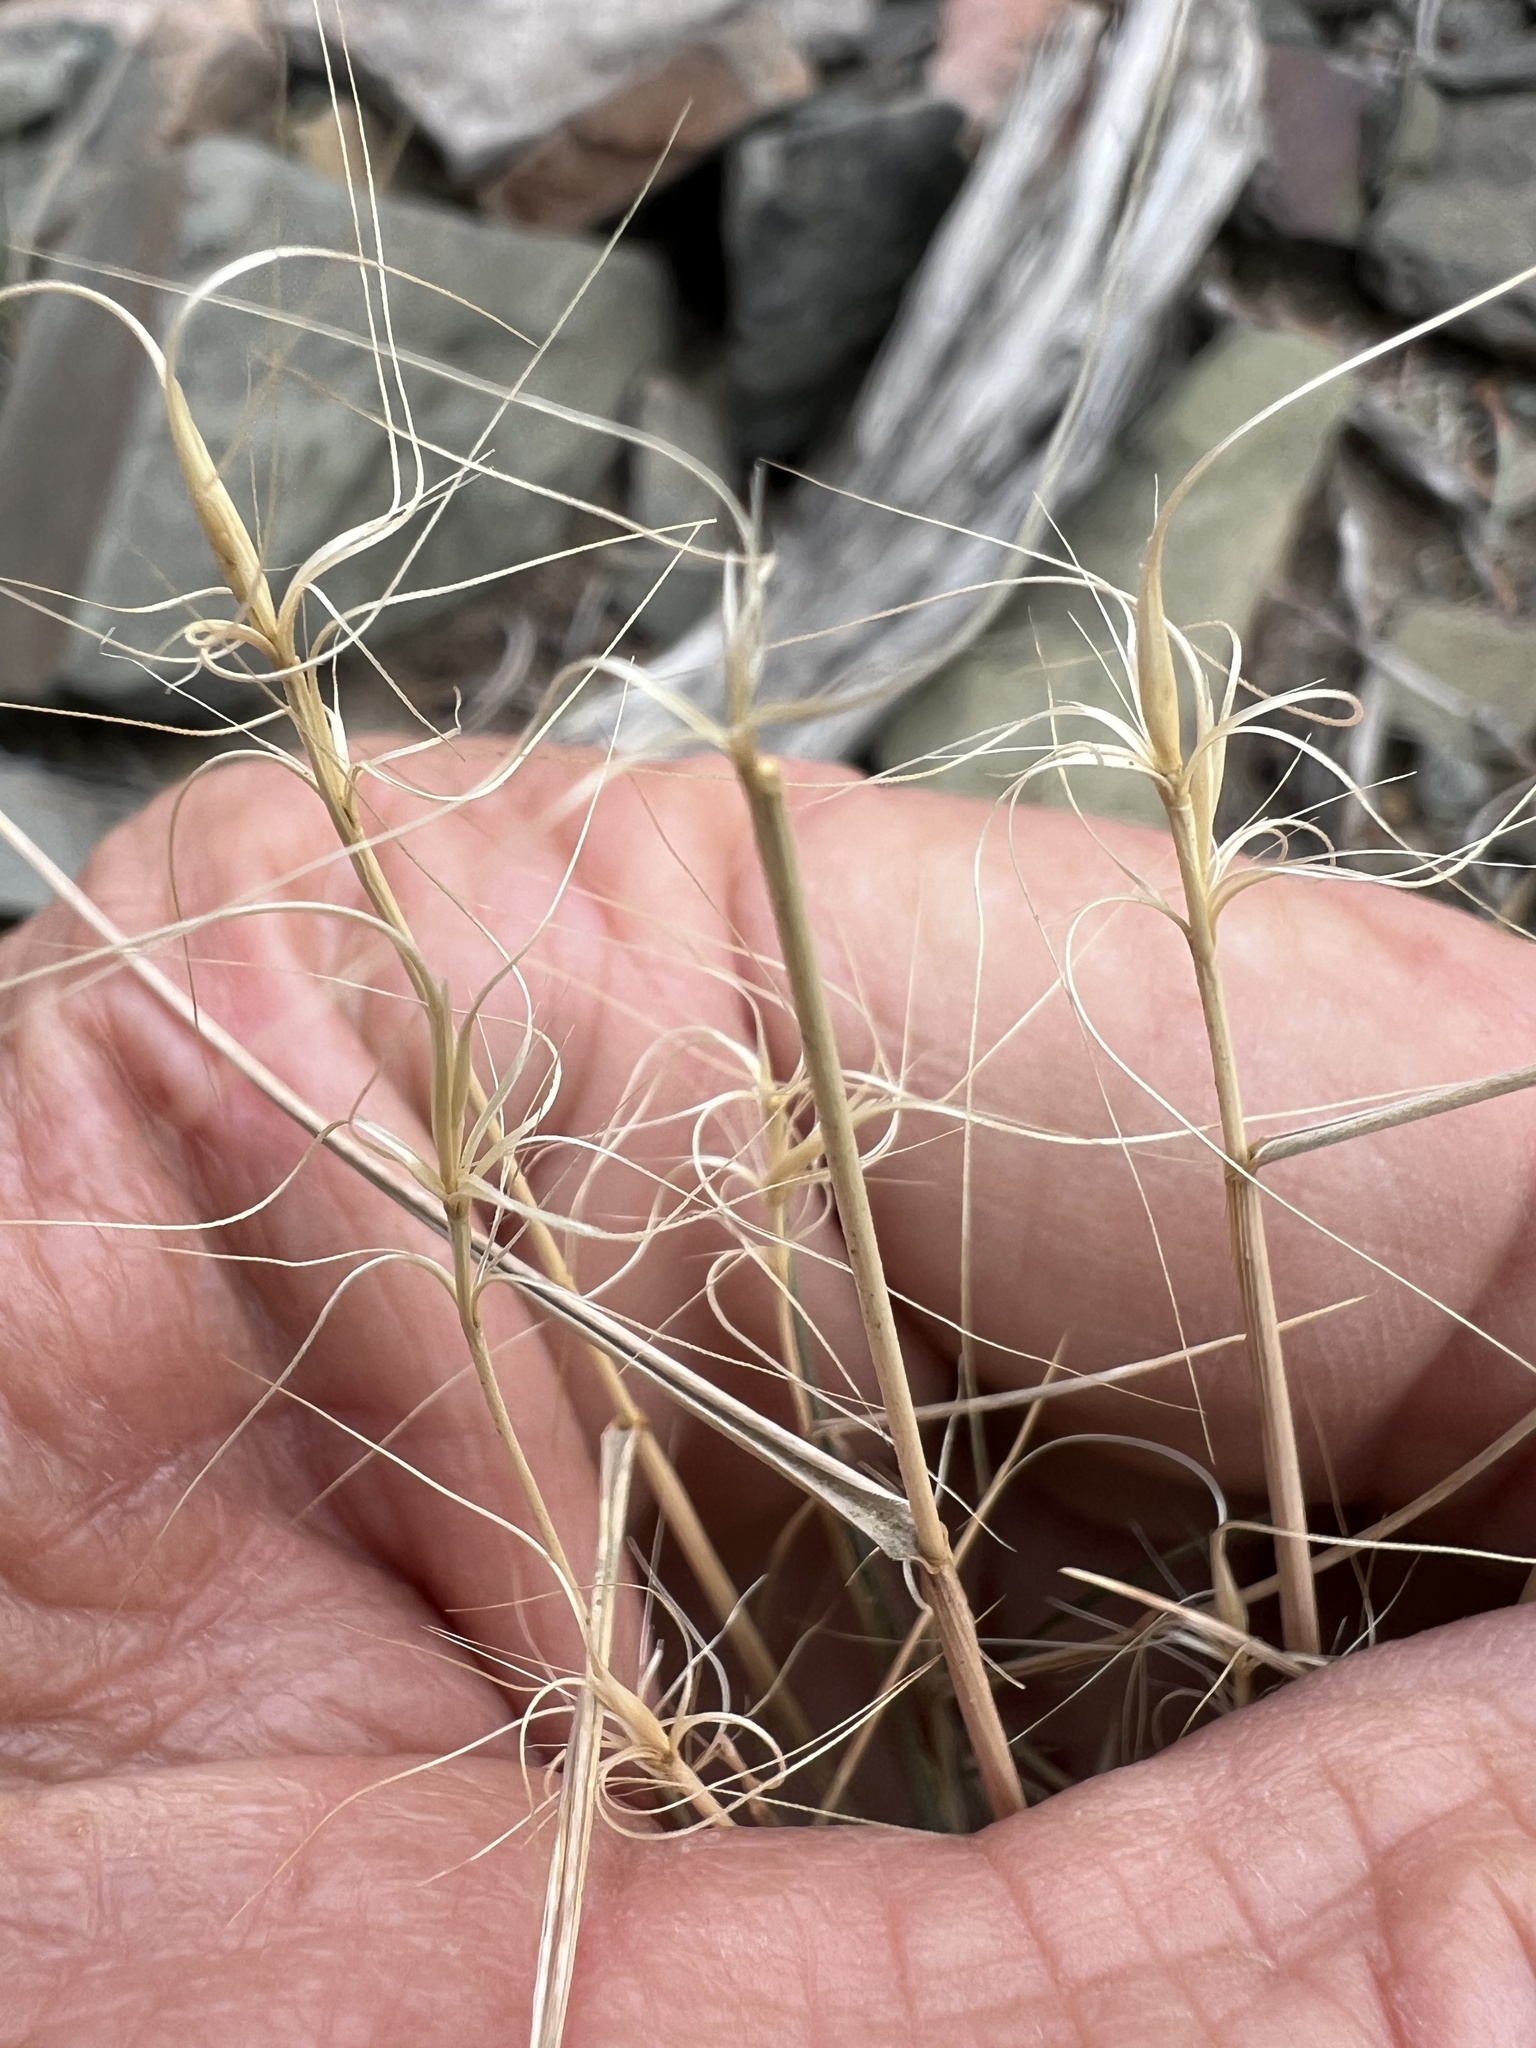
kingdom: Plantae
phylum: Tracheophyta
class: Liliopsida
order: Poales
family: Poaceae
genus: Elymus
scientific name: Elymus elymoides
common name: Bottlebrush squirreltail
